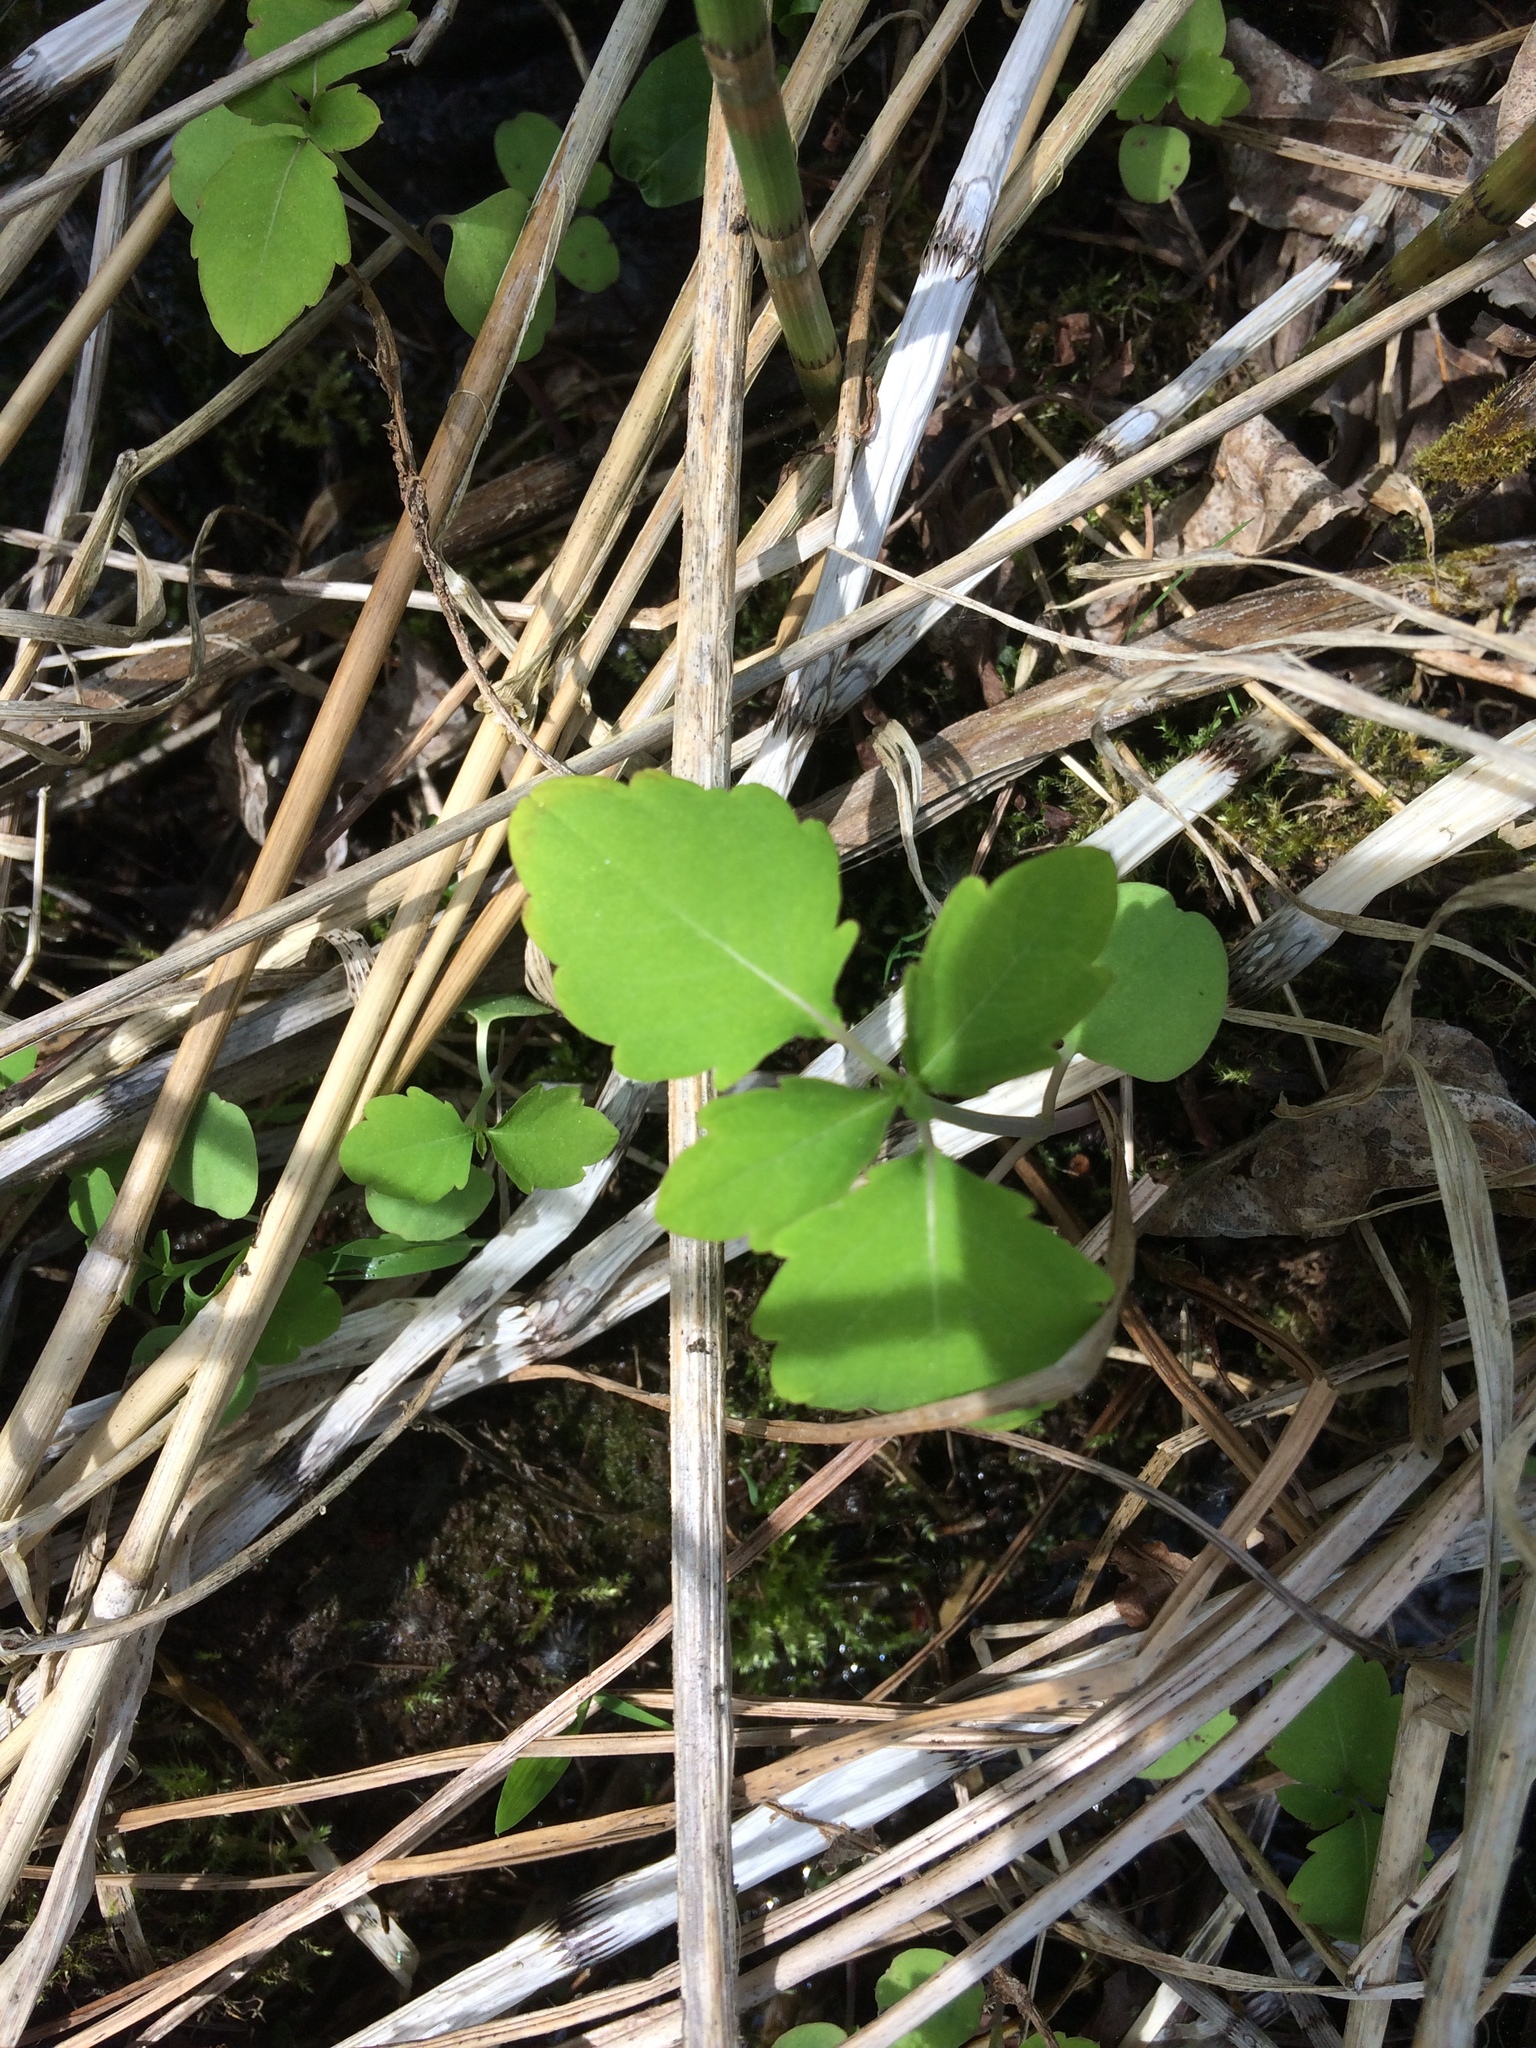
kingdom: Plantae
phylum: Tracheophyta
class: Magnoliopsida
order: Ericales
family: Balsaminaceae
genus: Impatiens
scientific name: Impatiens capensis
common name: Orange balsam
